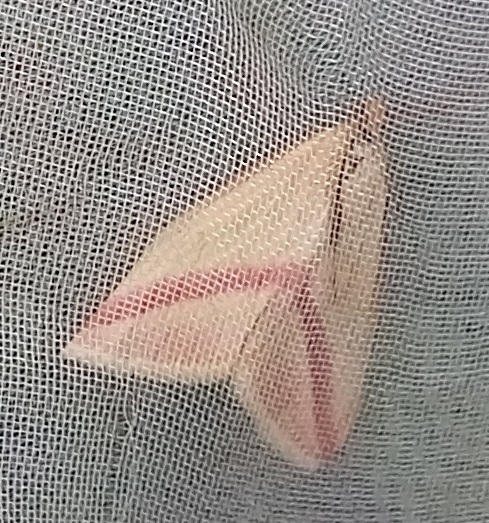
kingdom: Animalia
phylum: Arthropoda
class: Insecta
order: Lepidoptera
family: Geometridae
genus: Rhodometra
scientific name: Rhodometra sacraria
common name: Vestal
